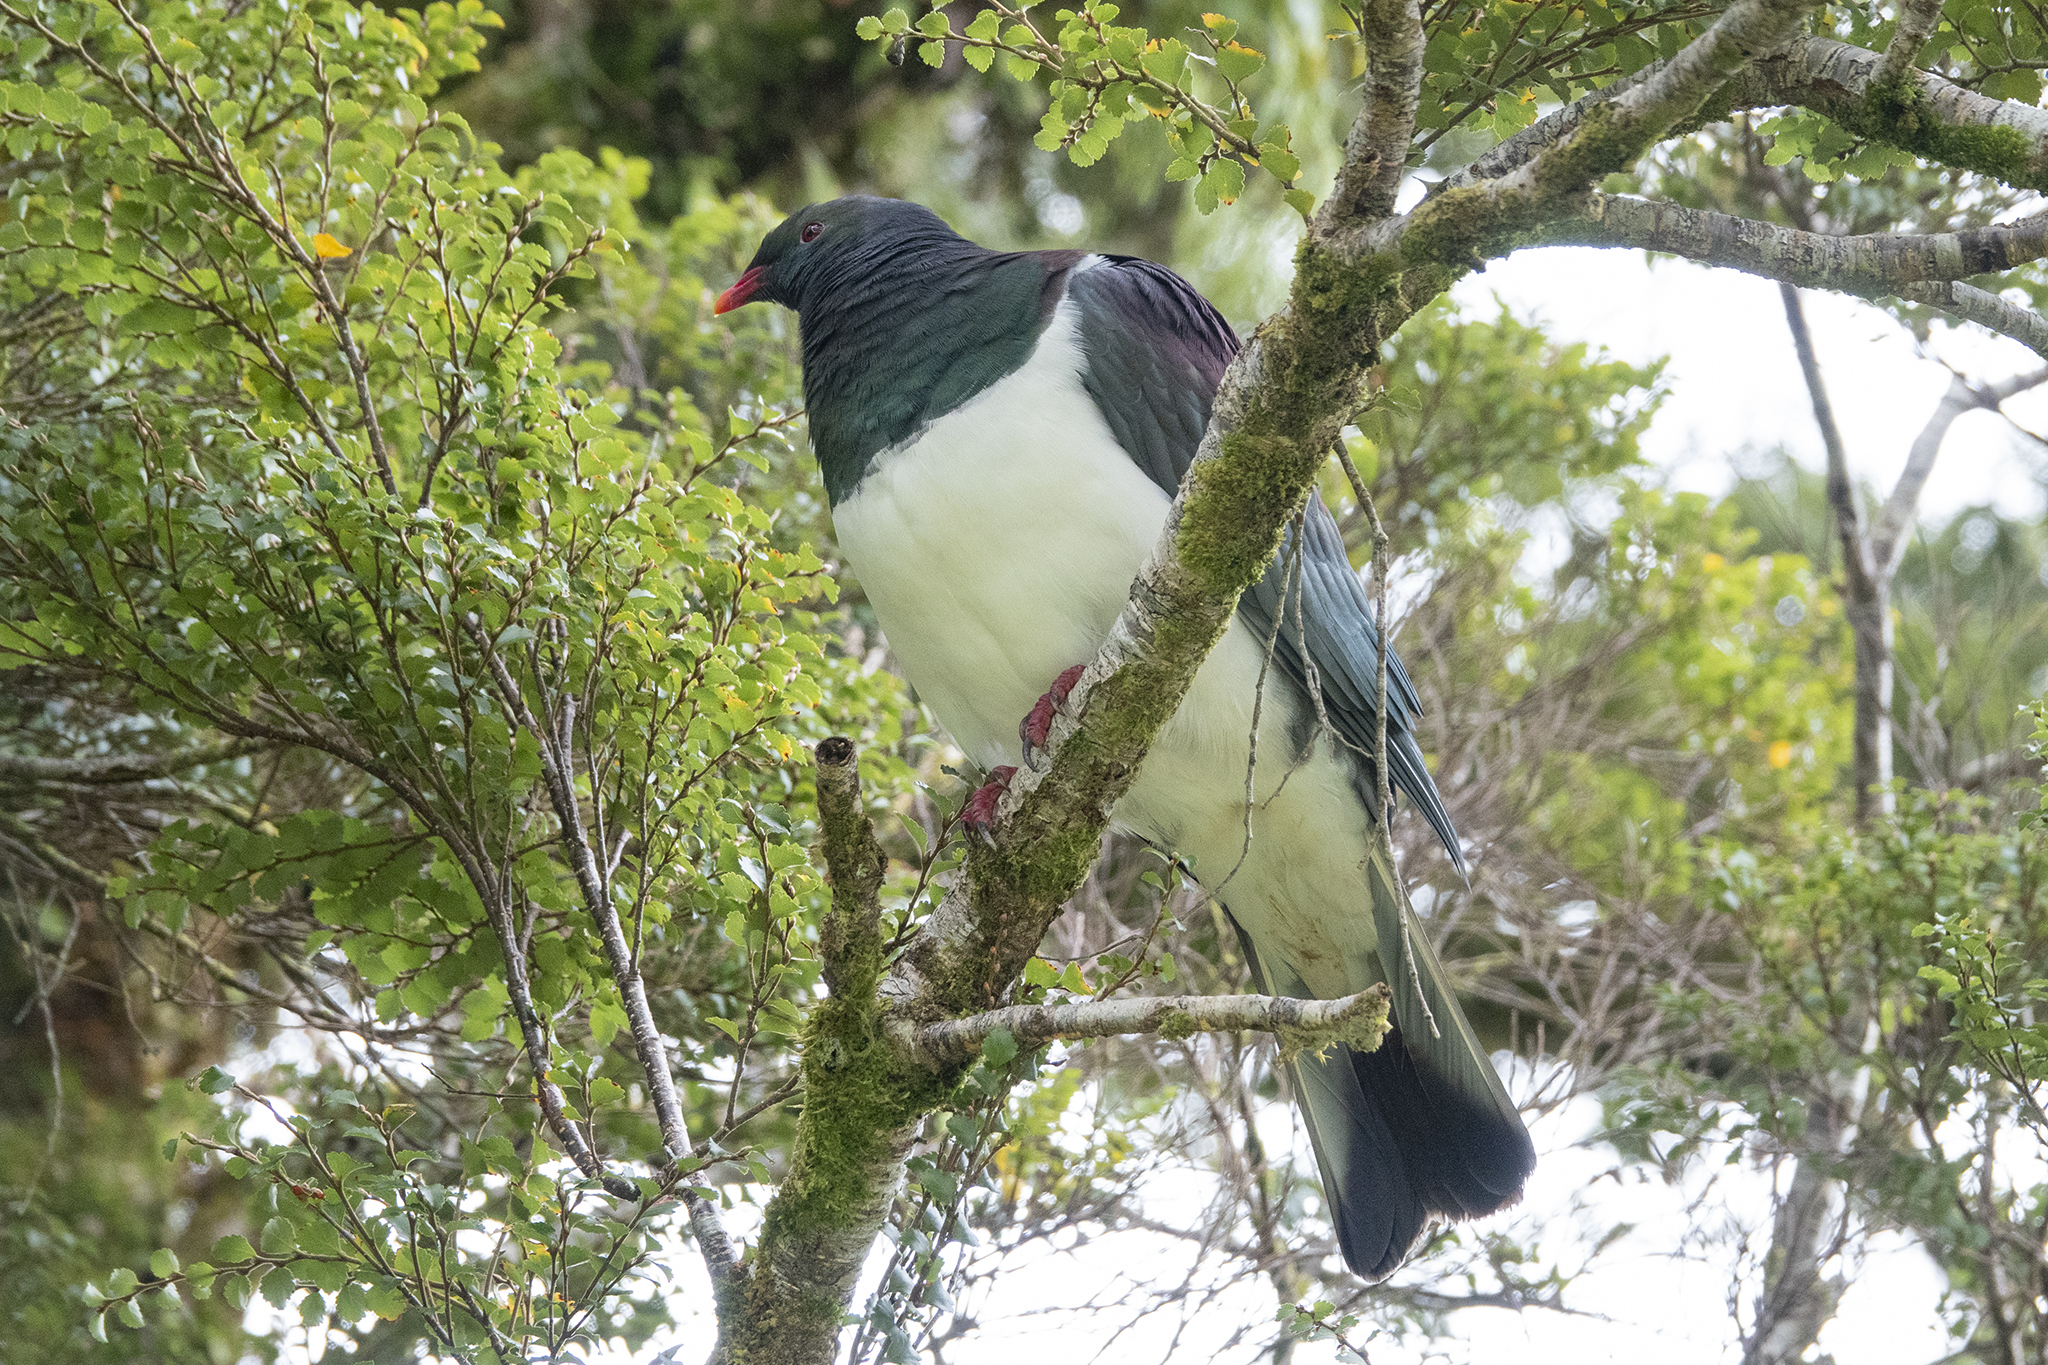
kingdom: Animalia
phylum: Chordata
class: Aves
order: Columbiformes
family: Columbidae
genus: Hemiphaga
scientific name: Hemiphaga novaeseelandiae
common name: New zealand pigeon
